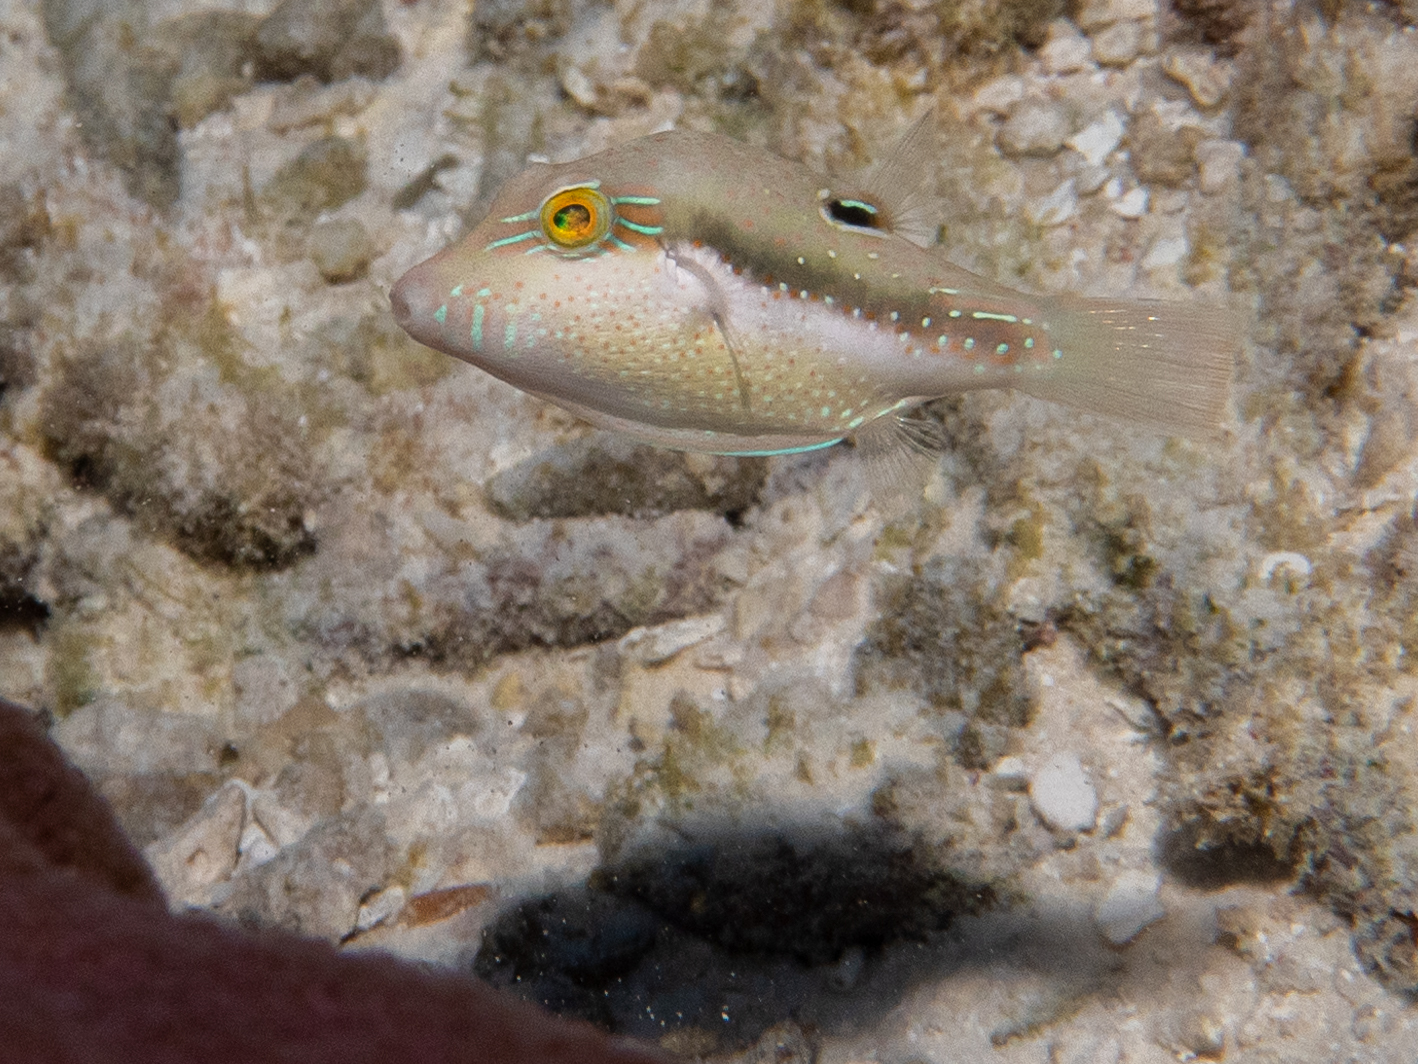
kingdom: Animalia
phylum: Chordata
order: Tetraodontiformes
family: Tetraodontidae
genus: Canthigaster
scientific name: Canthigaster bennetti
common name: Bennett's pufferfish
